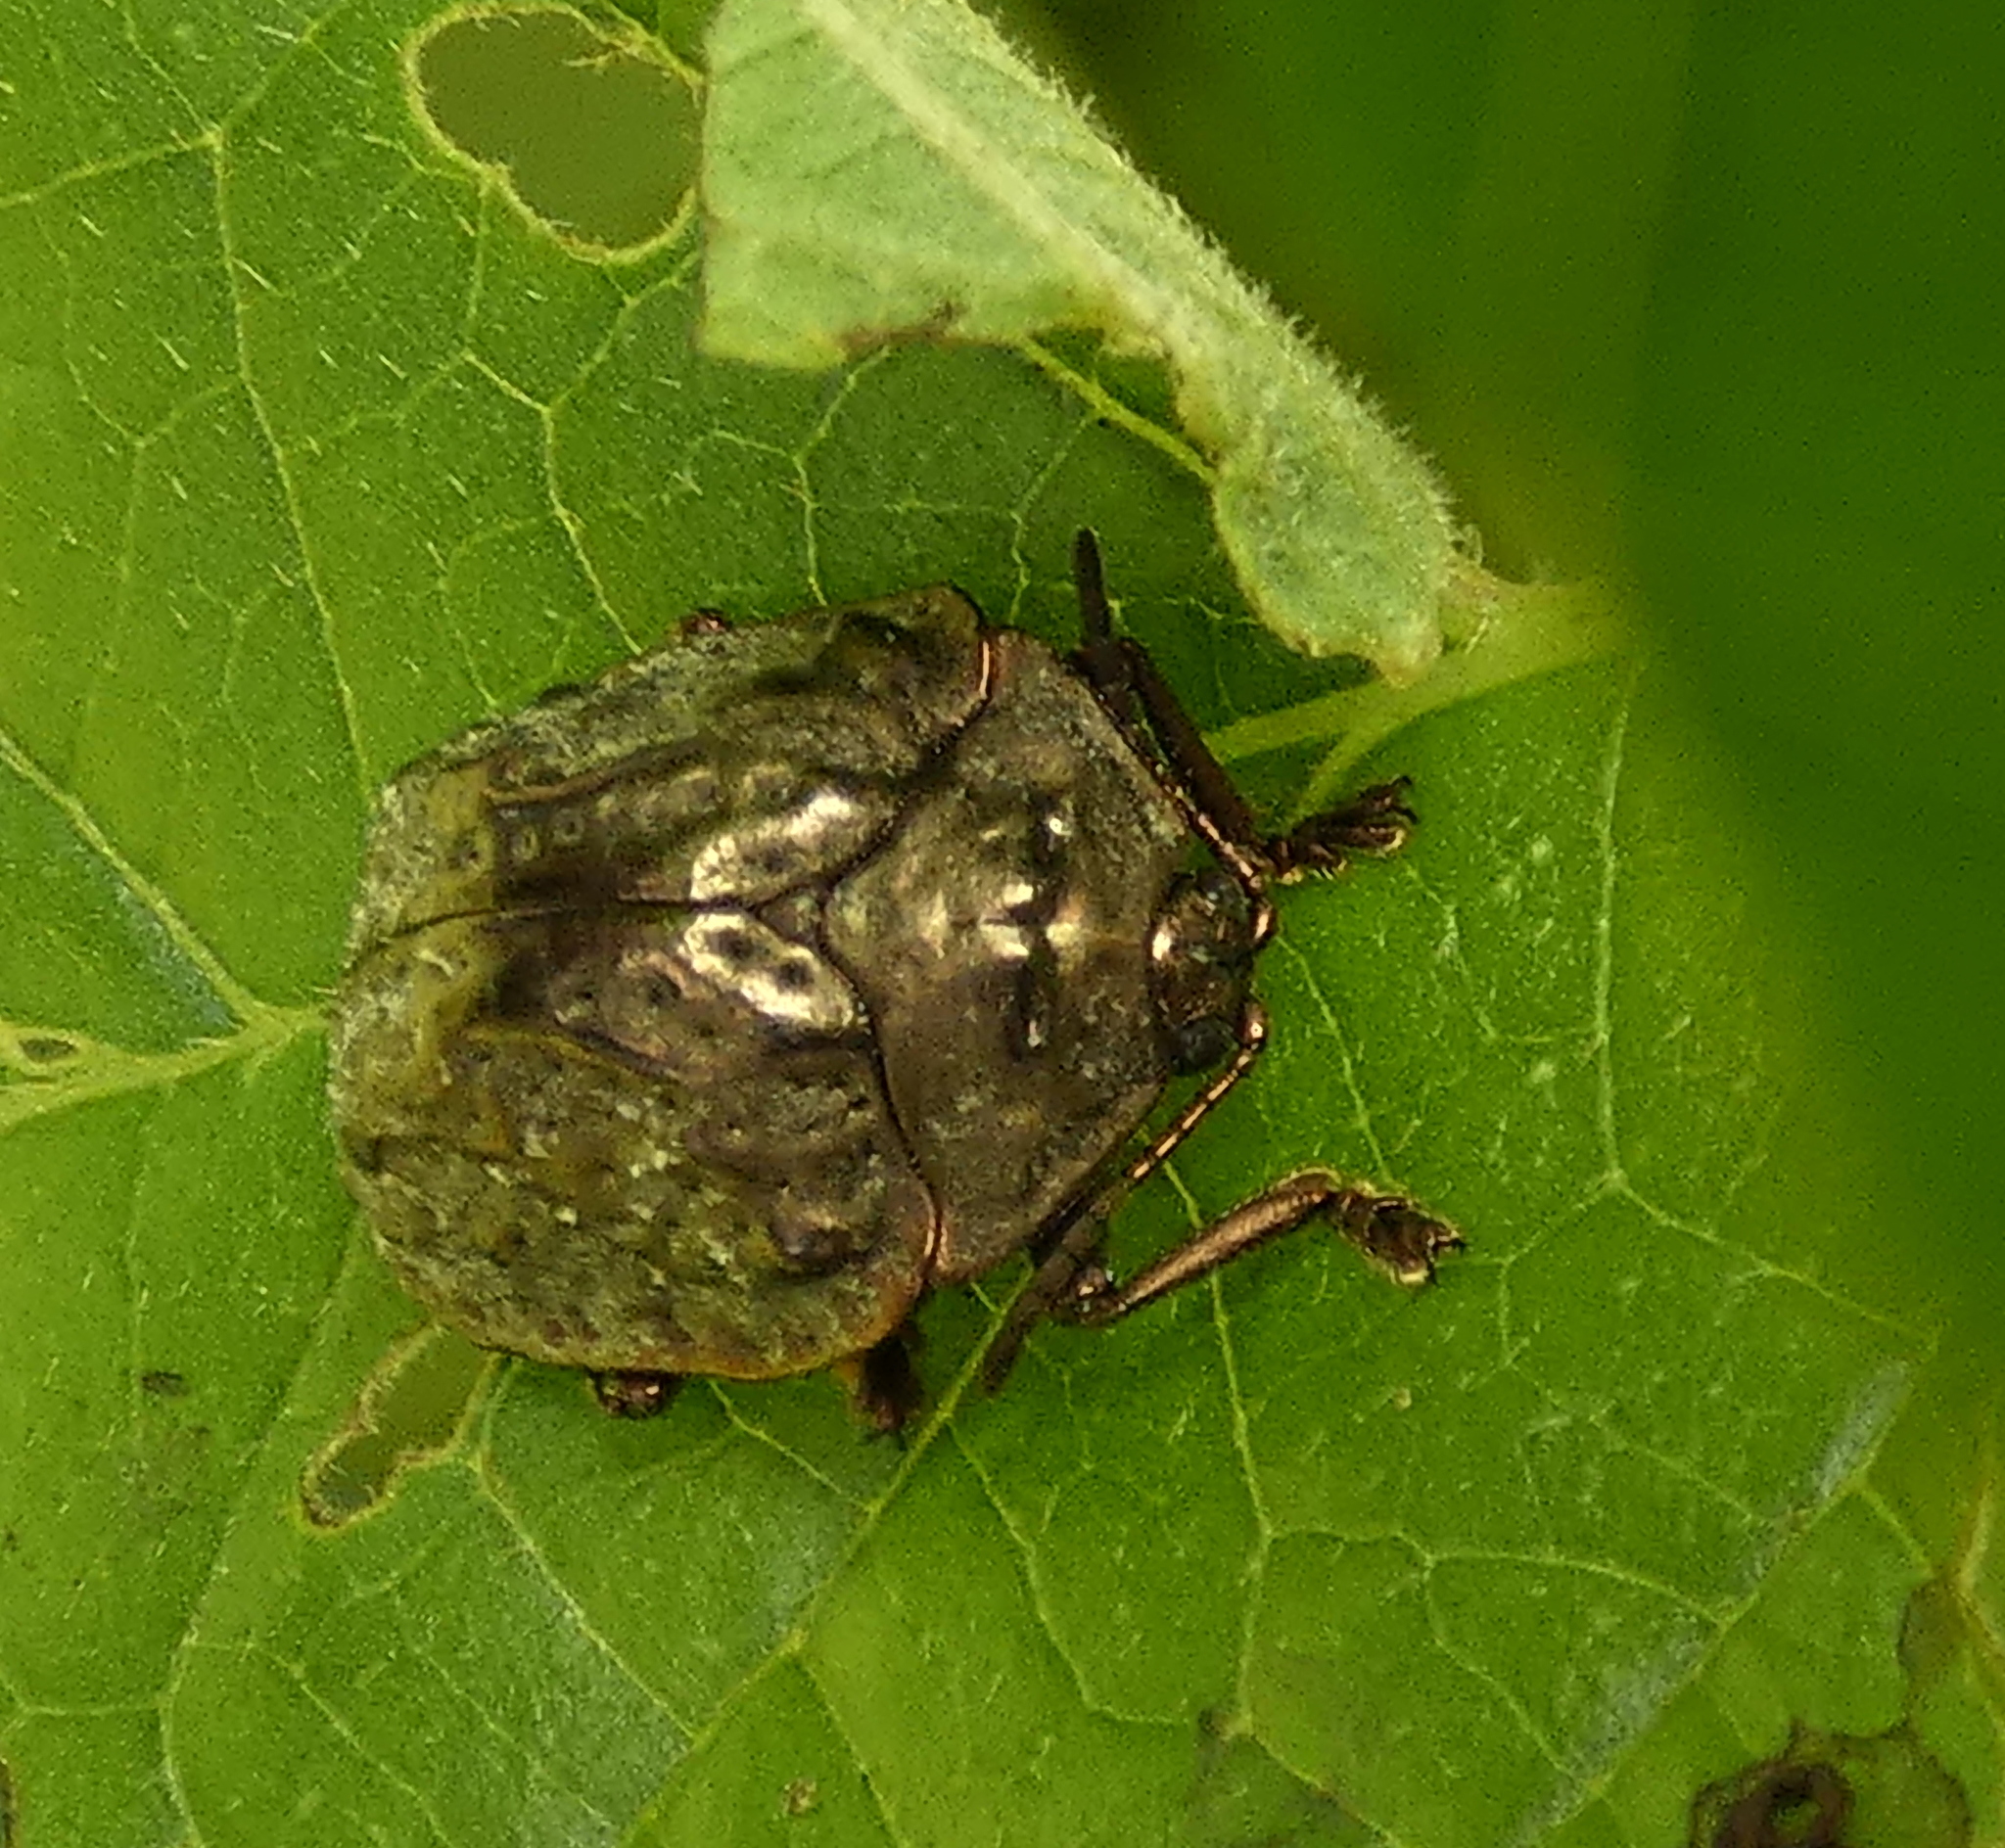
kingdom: Animalia
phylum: Arthropoda
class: Insecta
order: Coleoptera
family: Chrysomelidae
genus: Polychalca
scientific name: Polychalca aerea
